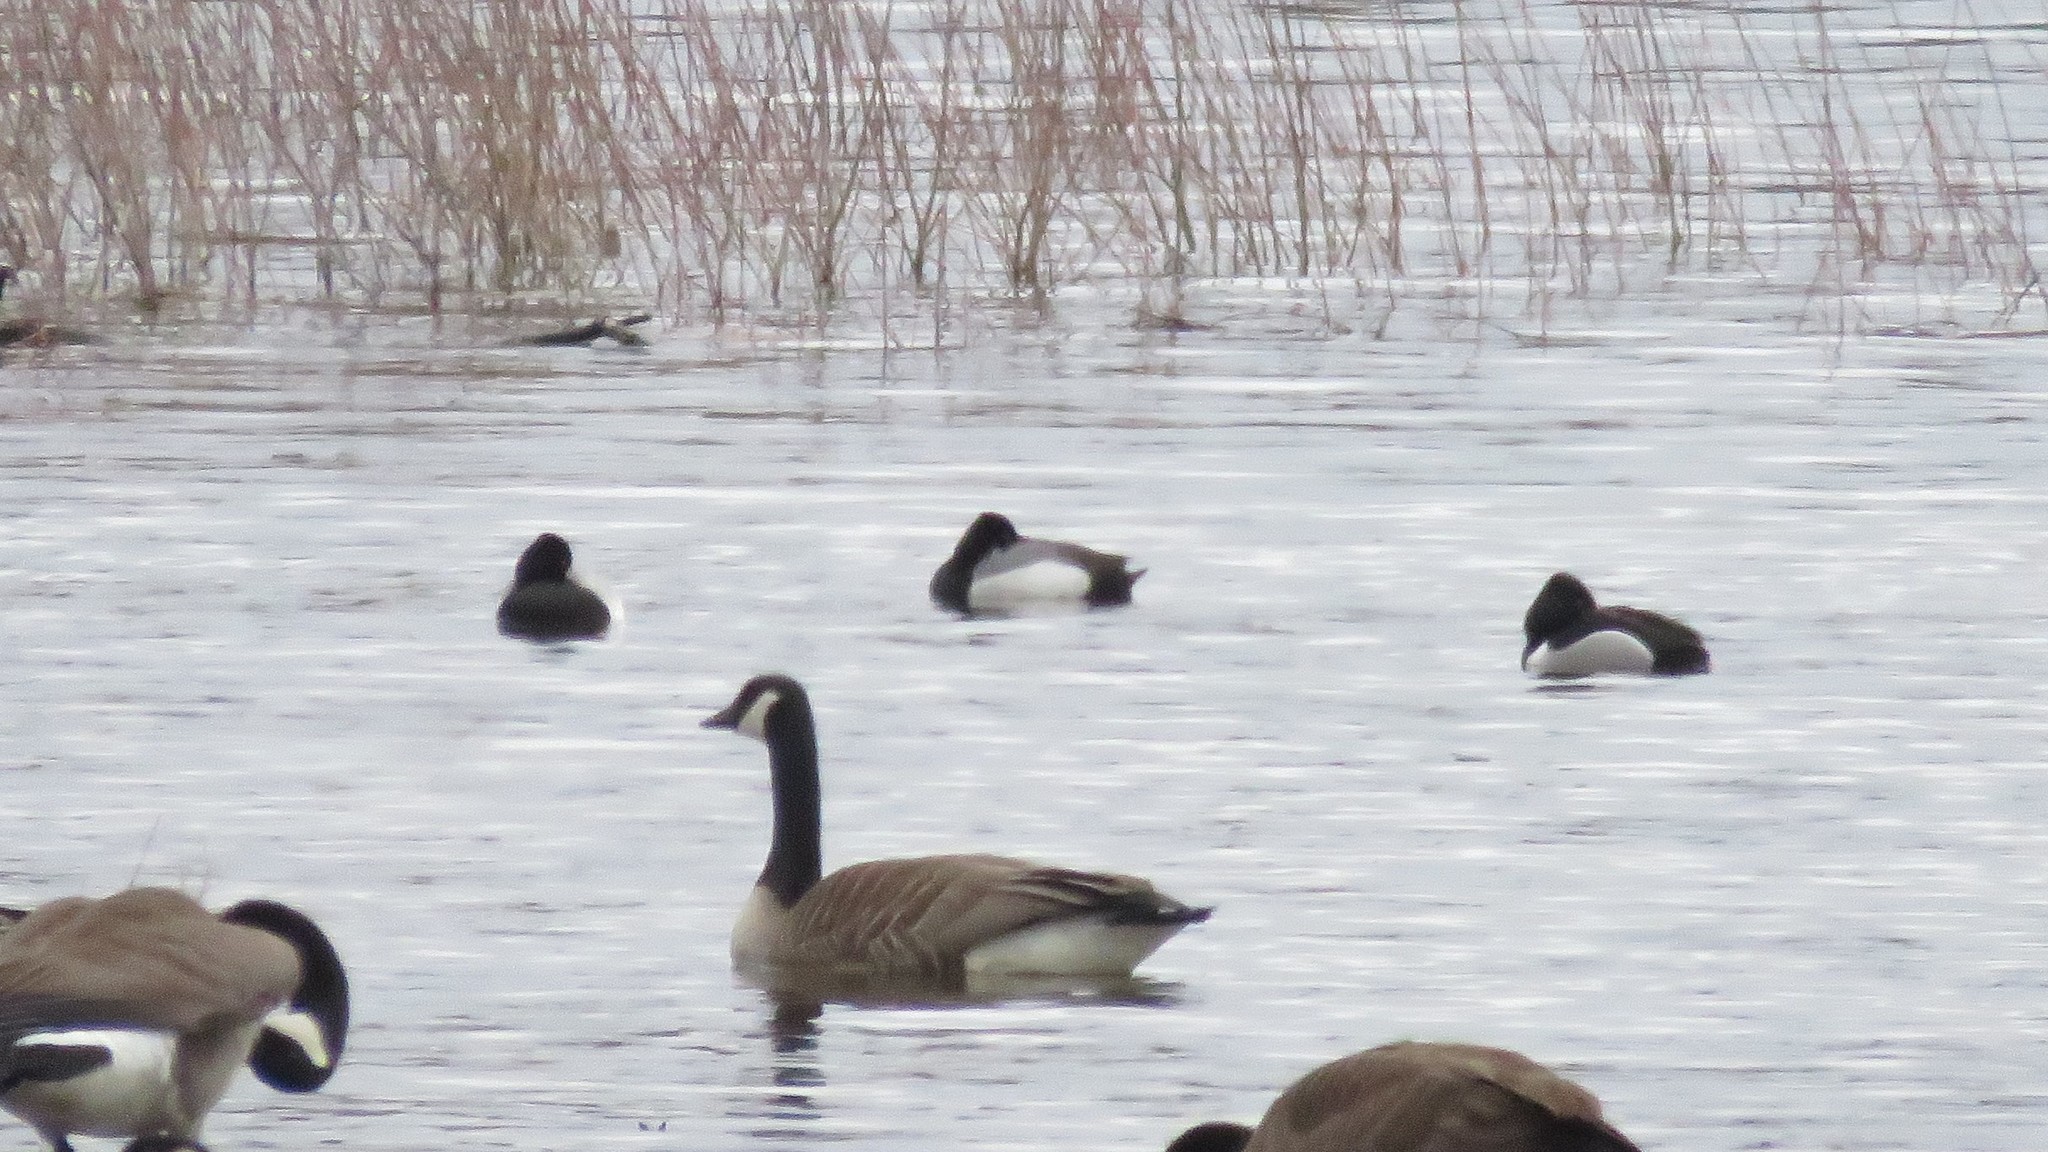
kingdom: Animalia
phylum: Chordata
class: Aves
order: Anseriformes
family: Anatidae
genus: Aythya
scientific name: Aythya affinis
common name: Lesser scaup
